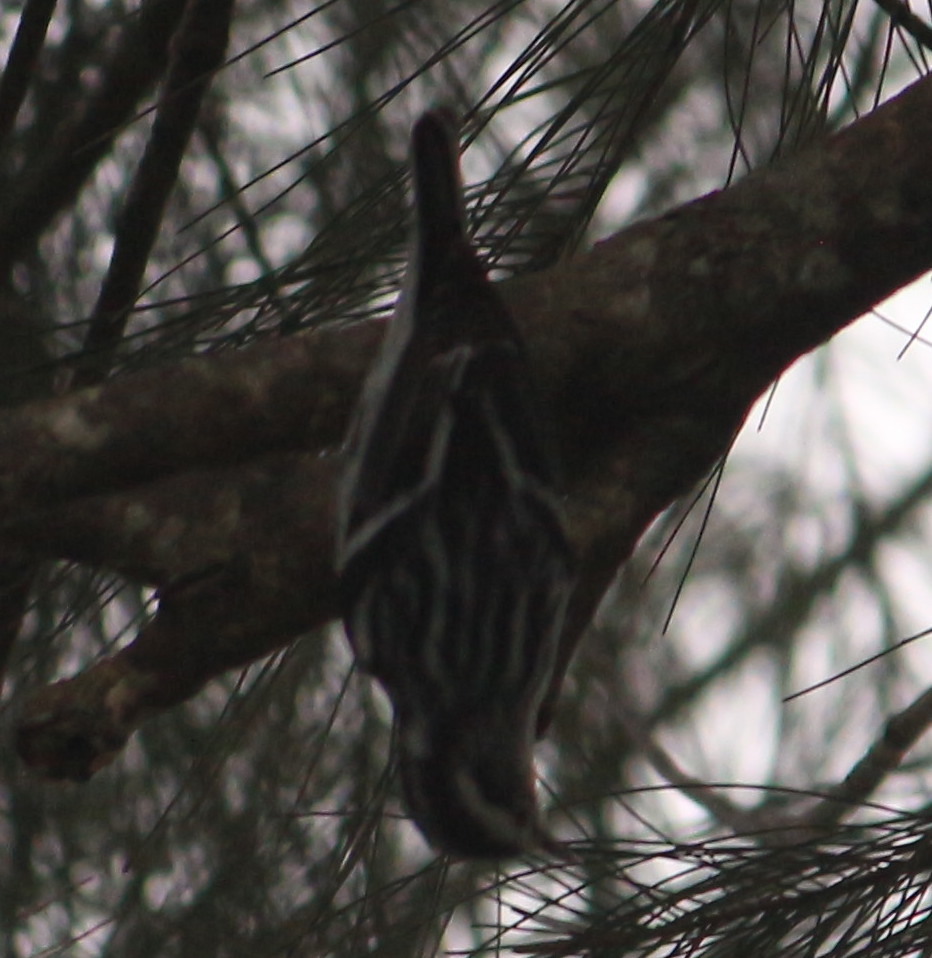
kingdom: Animalia
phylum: Chordata
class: Aves
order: Passeriformes
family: Parulidae
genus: Mniotilta
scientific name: Mniotilta varia
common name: Black-and-white warbler
